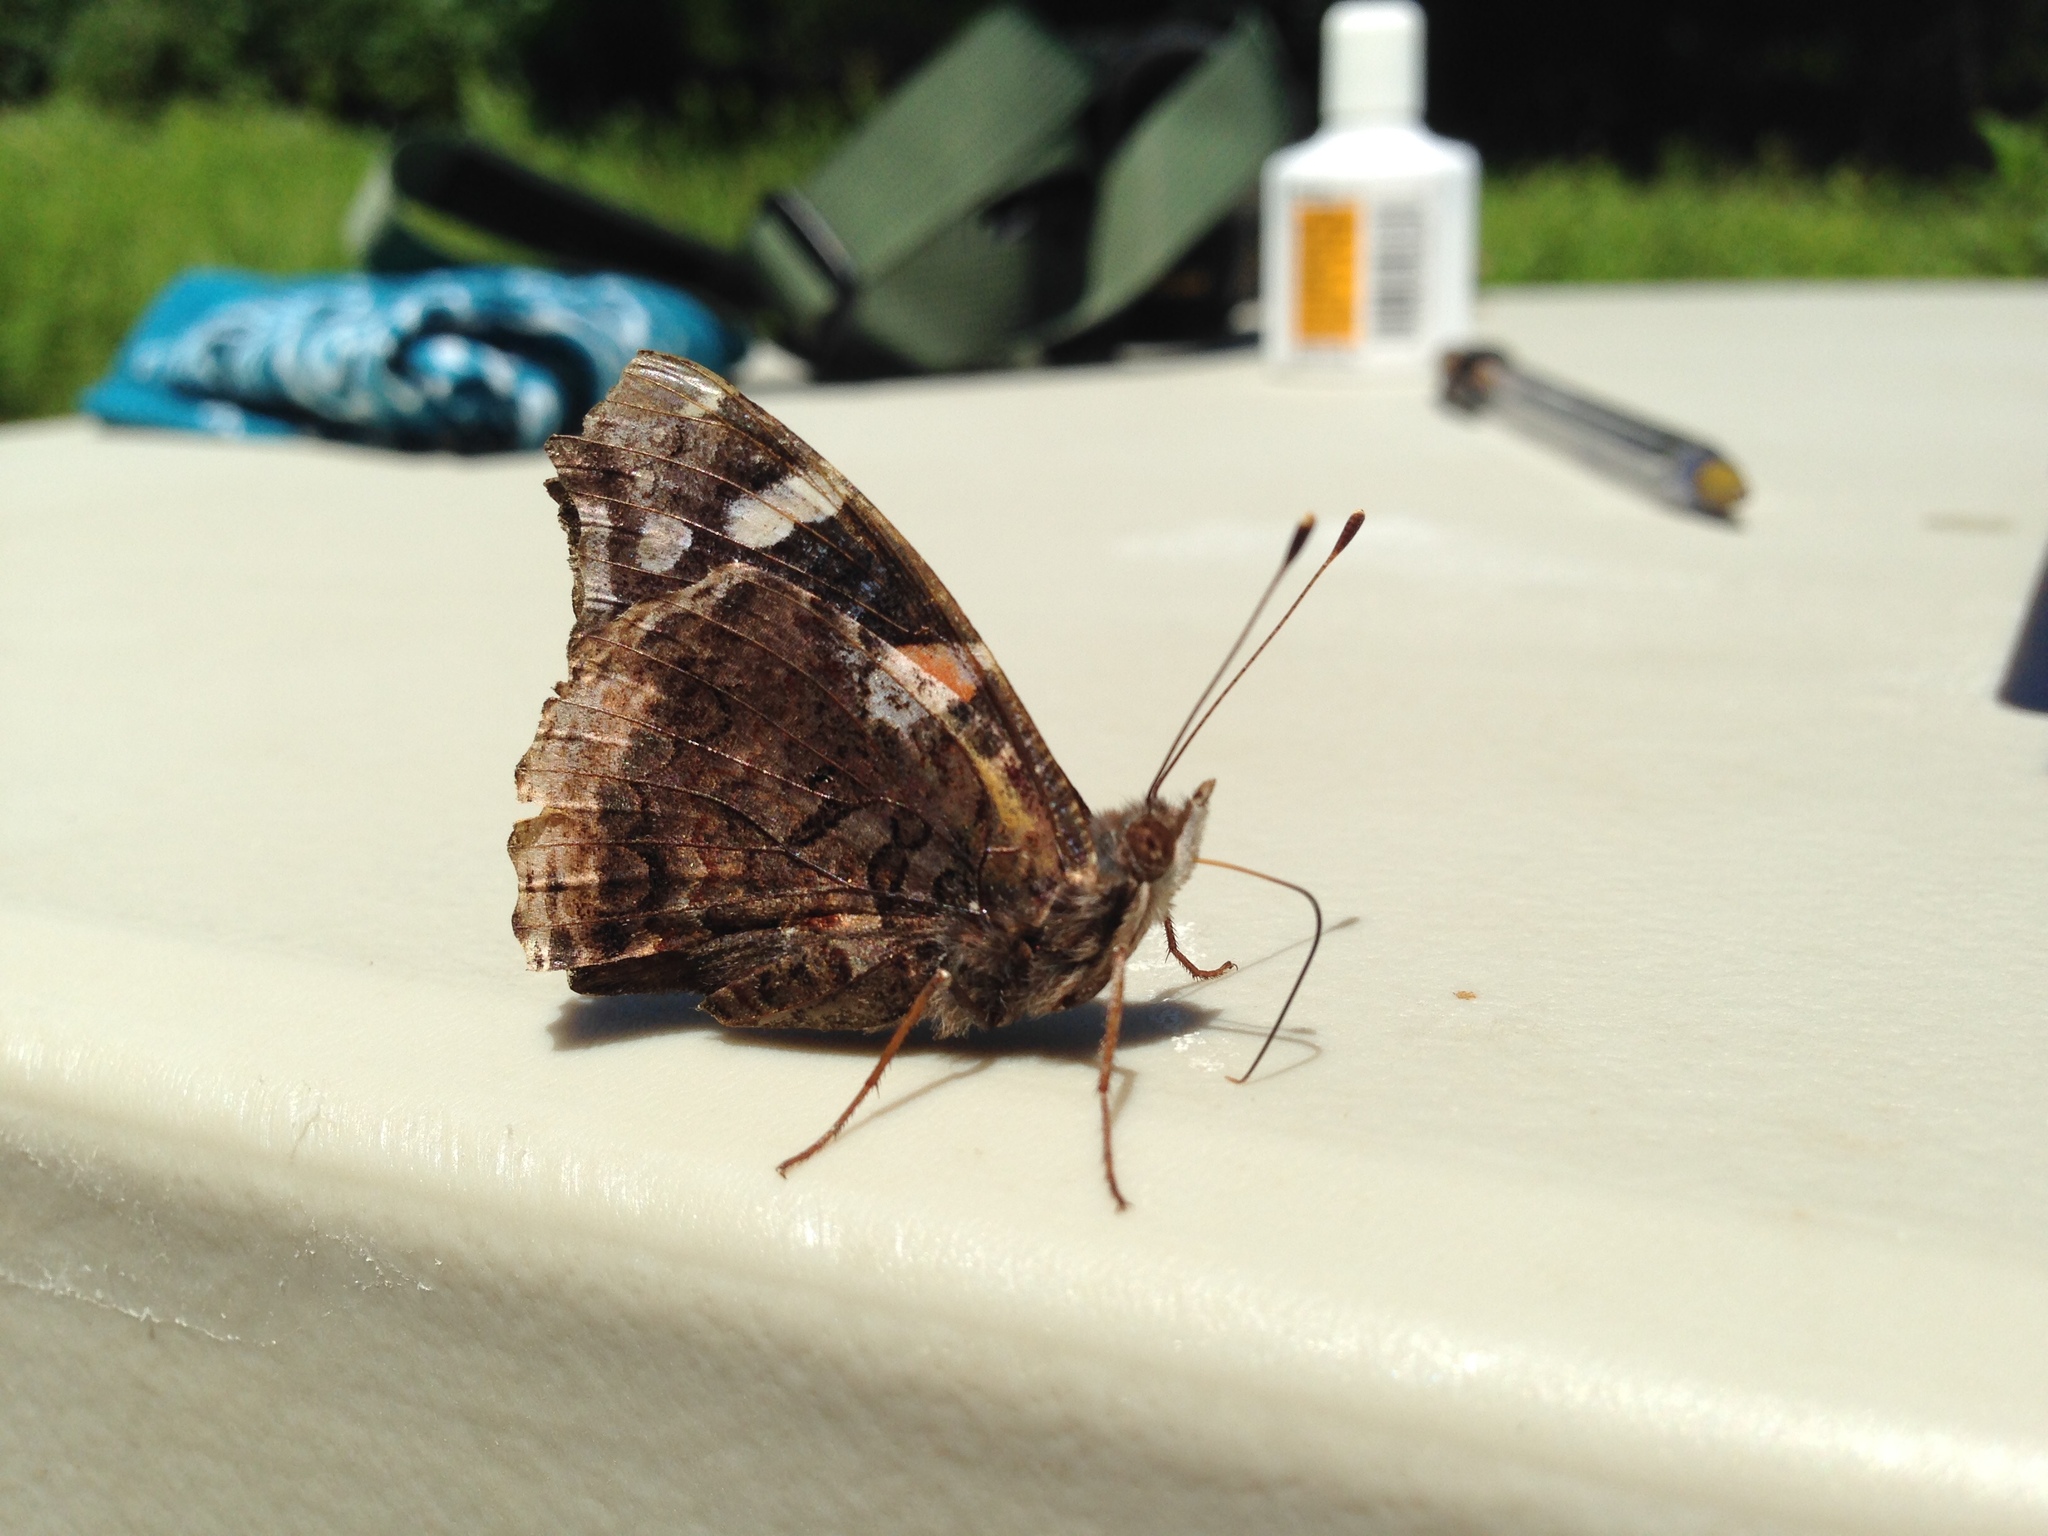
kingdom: Animalia
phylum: Arthropoda
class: Insecta
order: Lepidoptera
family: Nymphalidae
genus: Vanessa
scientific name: Vanessa atalanta
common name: Red admiral
